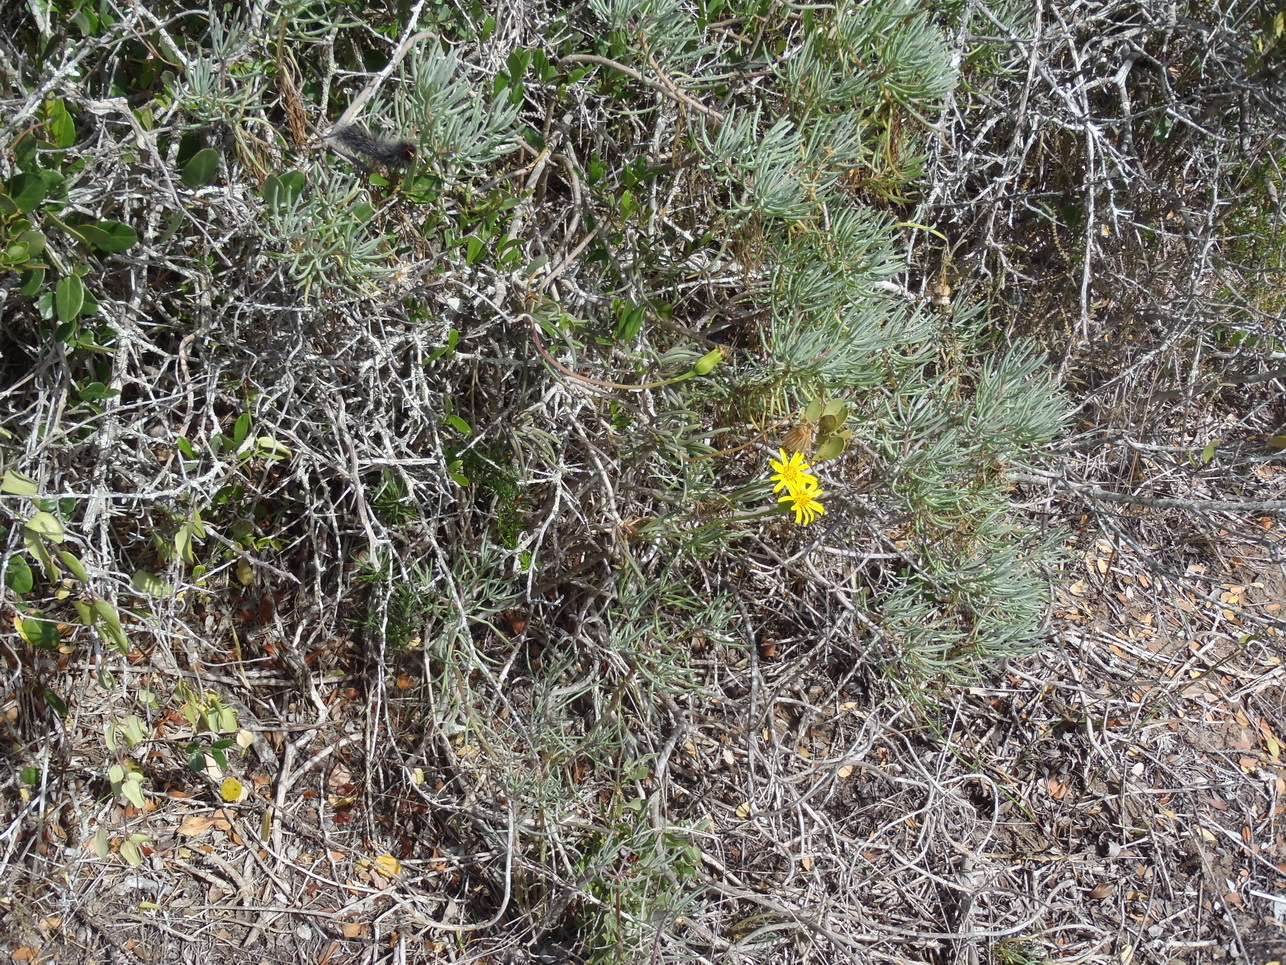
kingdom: Plantae
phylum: Tracheophyta
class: Magnoliopsida
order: Asterales
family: Asteraceae
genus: Senecio
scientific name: Senecio alooides
